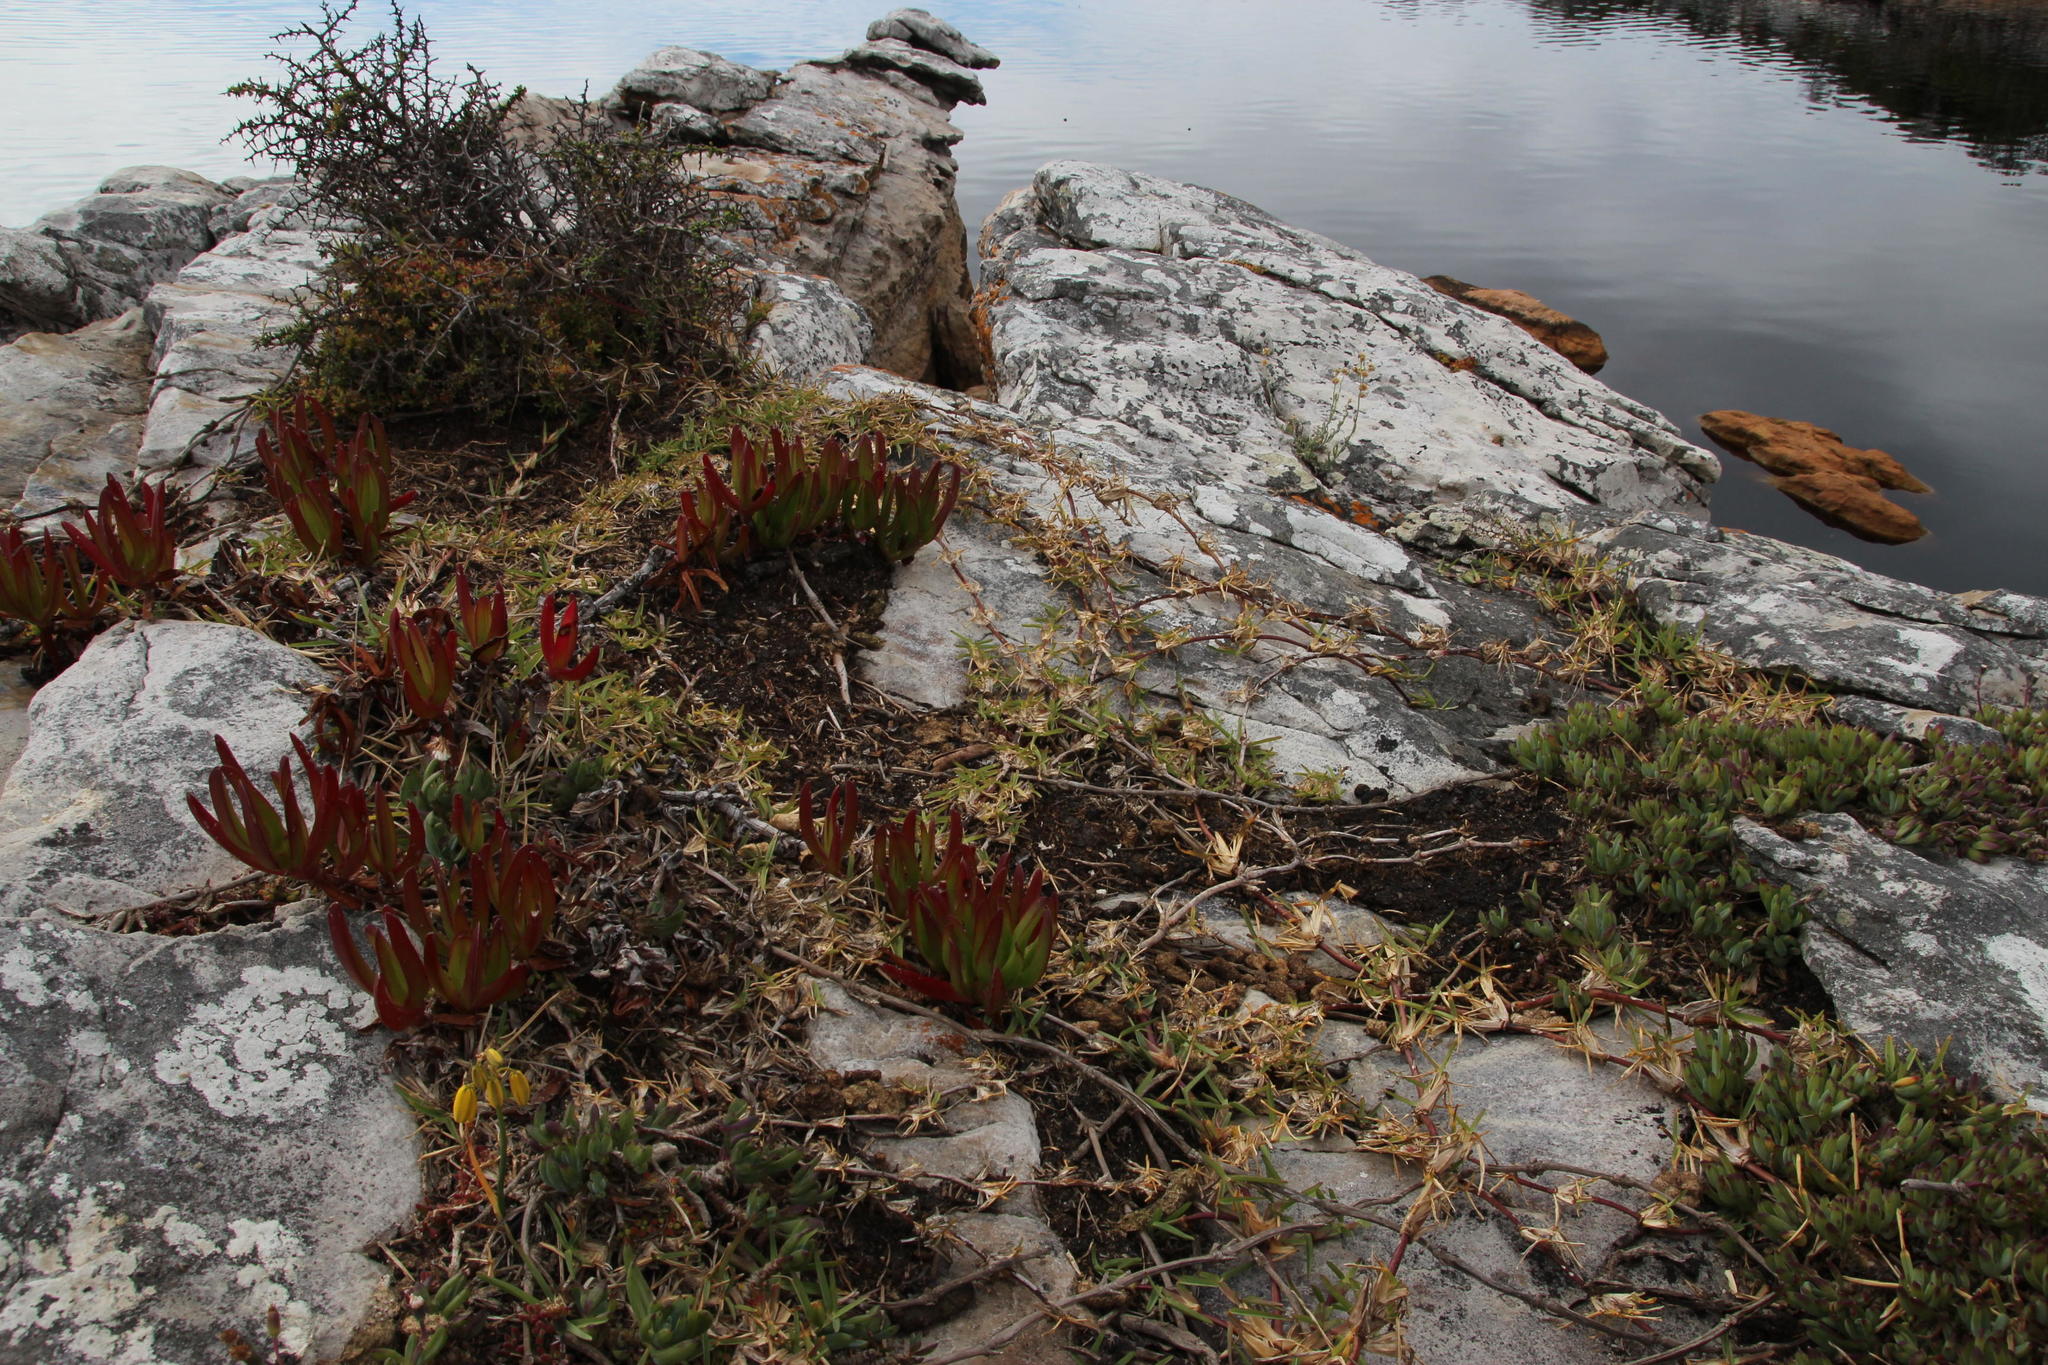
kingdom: Plantae
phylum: Tracheophyta
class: Liliopsida
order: Poales
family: Poaceae
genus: Stenotaphrum
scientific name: Stenotaphrum secundatum
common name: St. augustine grass
